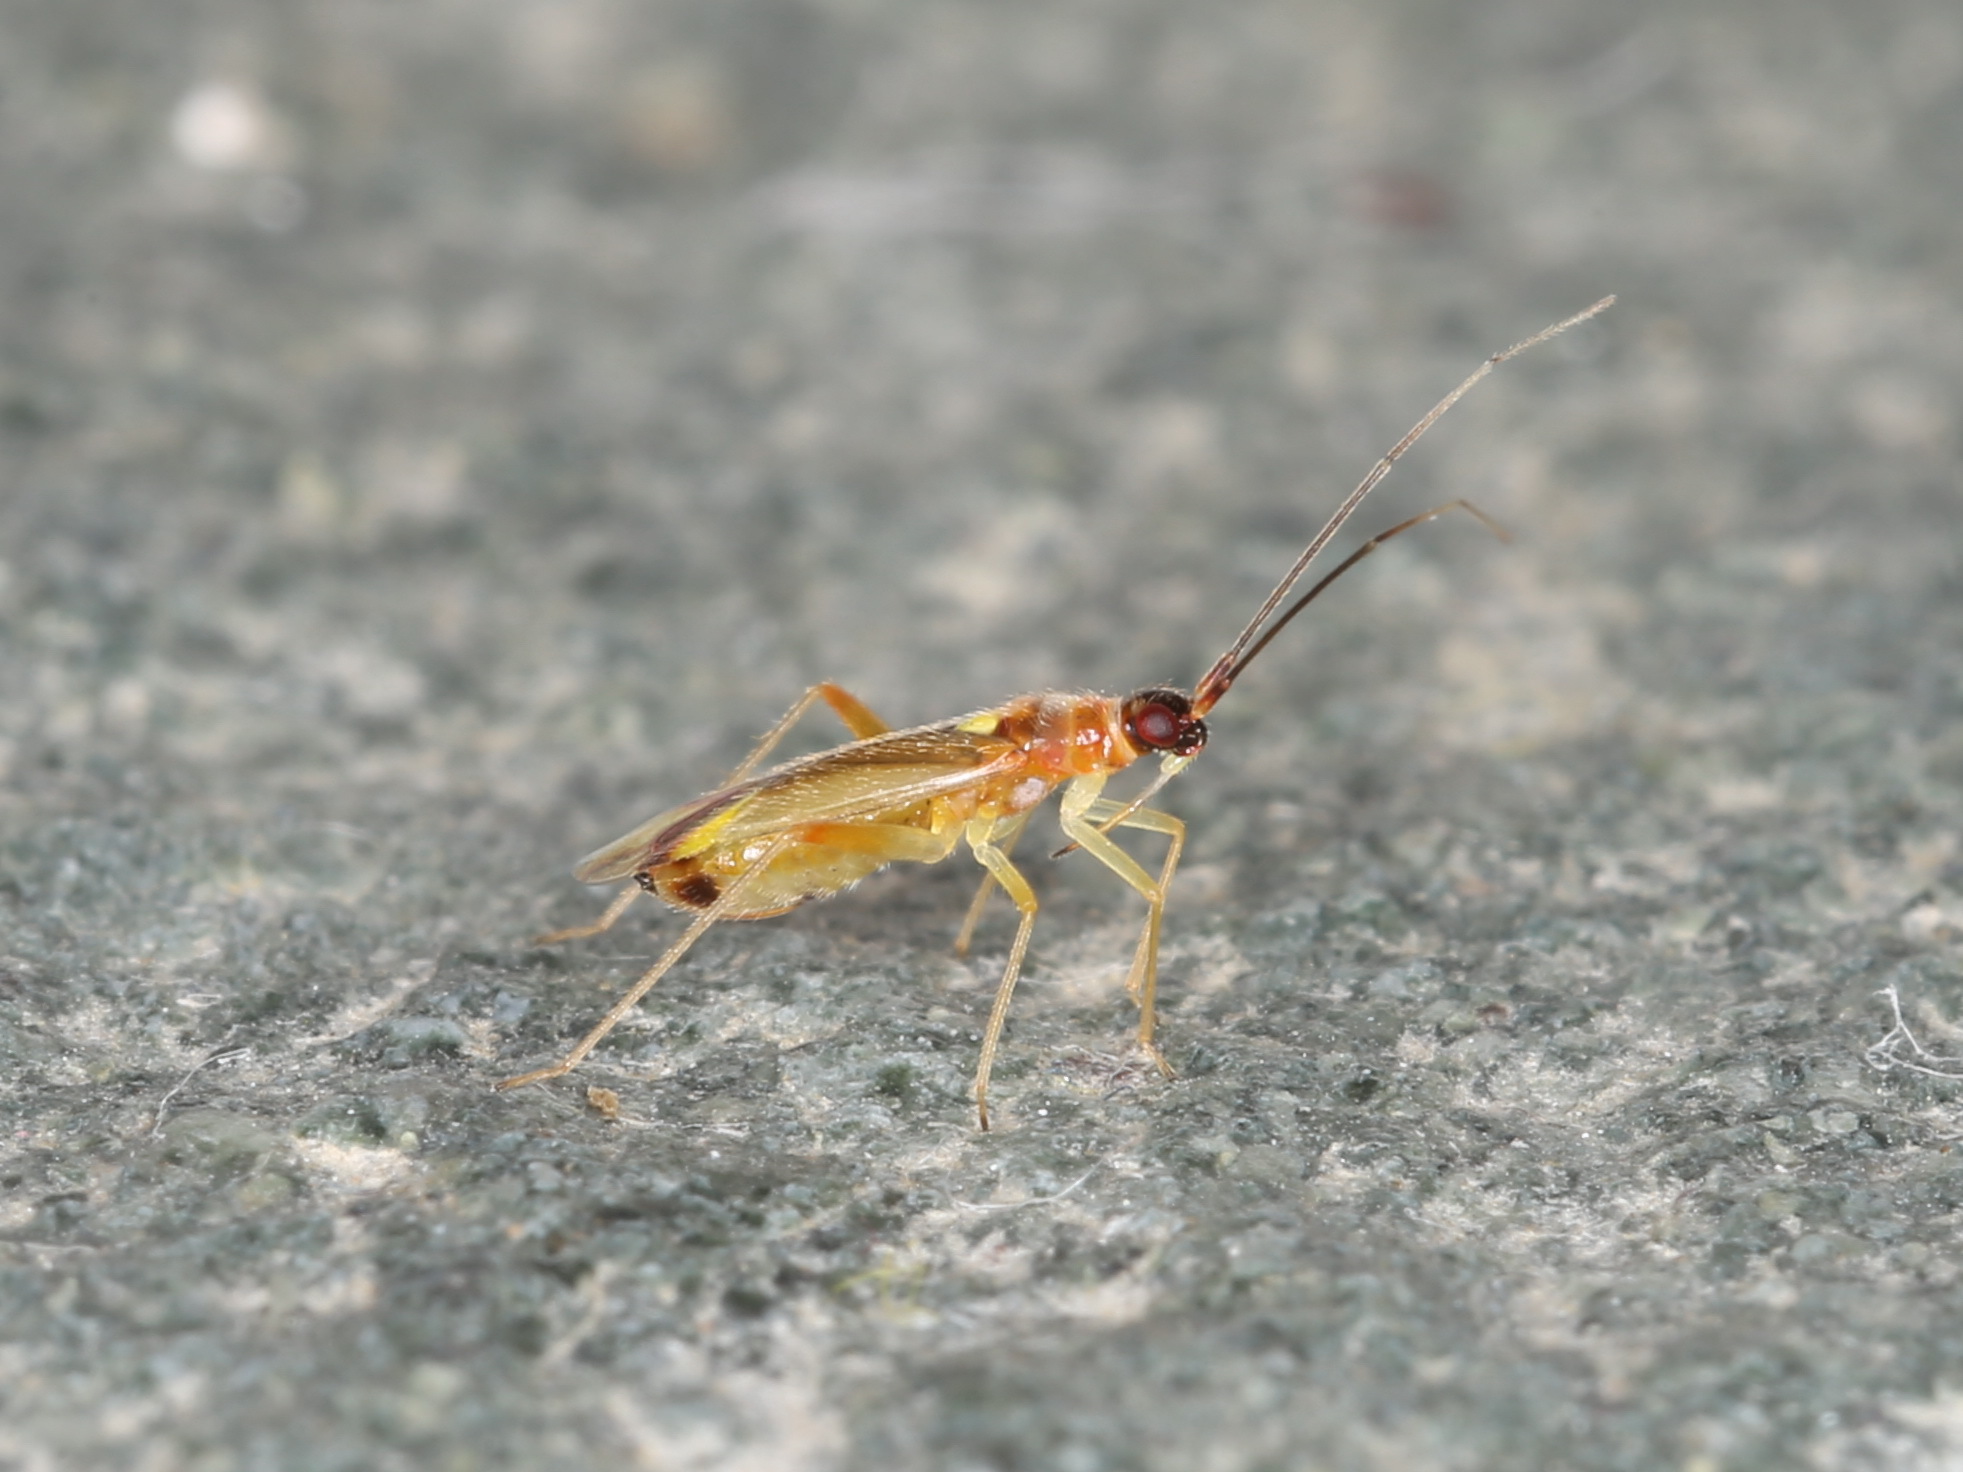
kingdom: Animalia
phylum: Arthropoda
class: Insecta
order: Hemiptera
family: Miridae
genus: Campyloneura
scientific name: Campyloneura virgula
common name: Predatory bug
